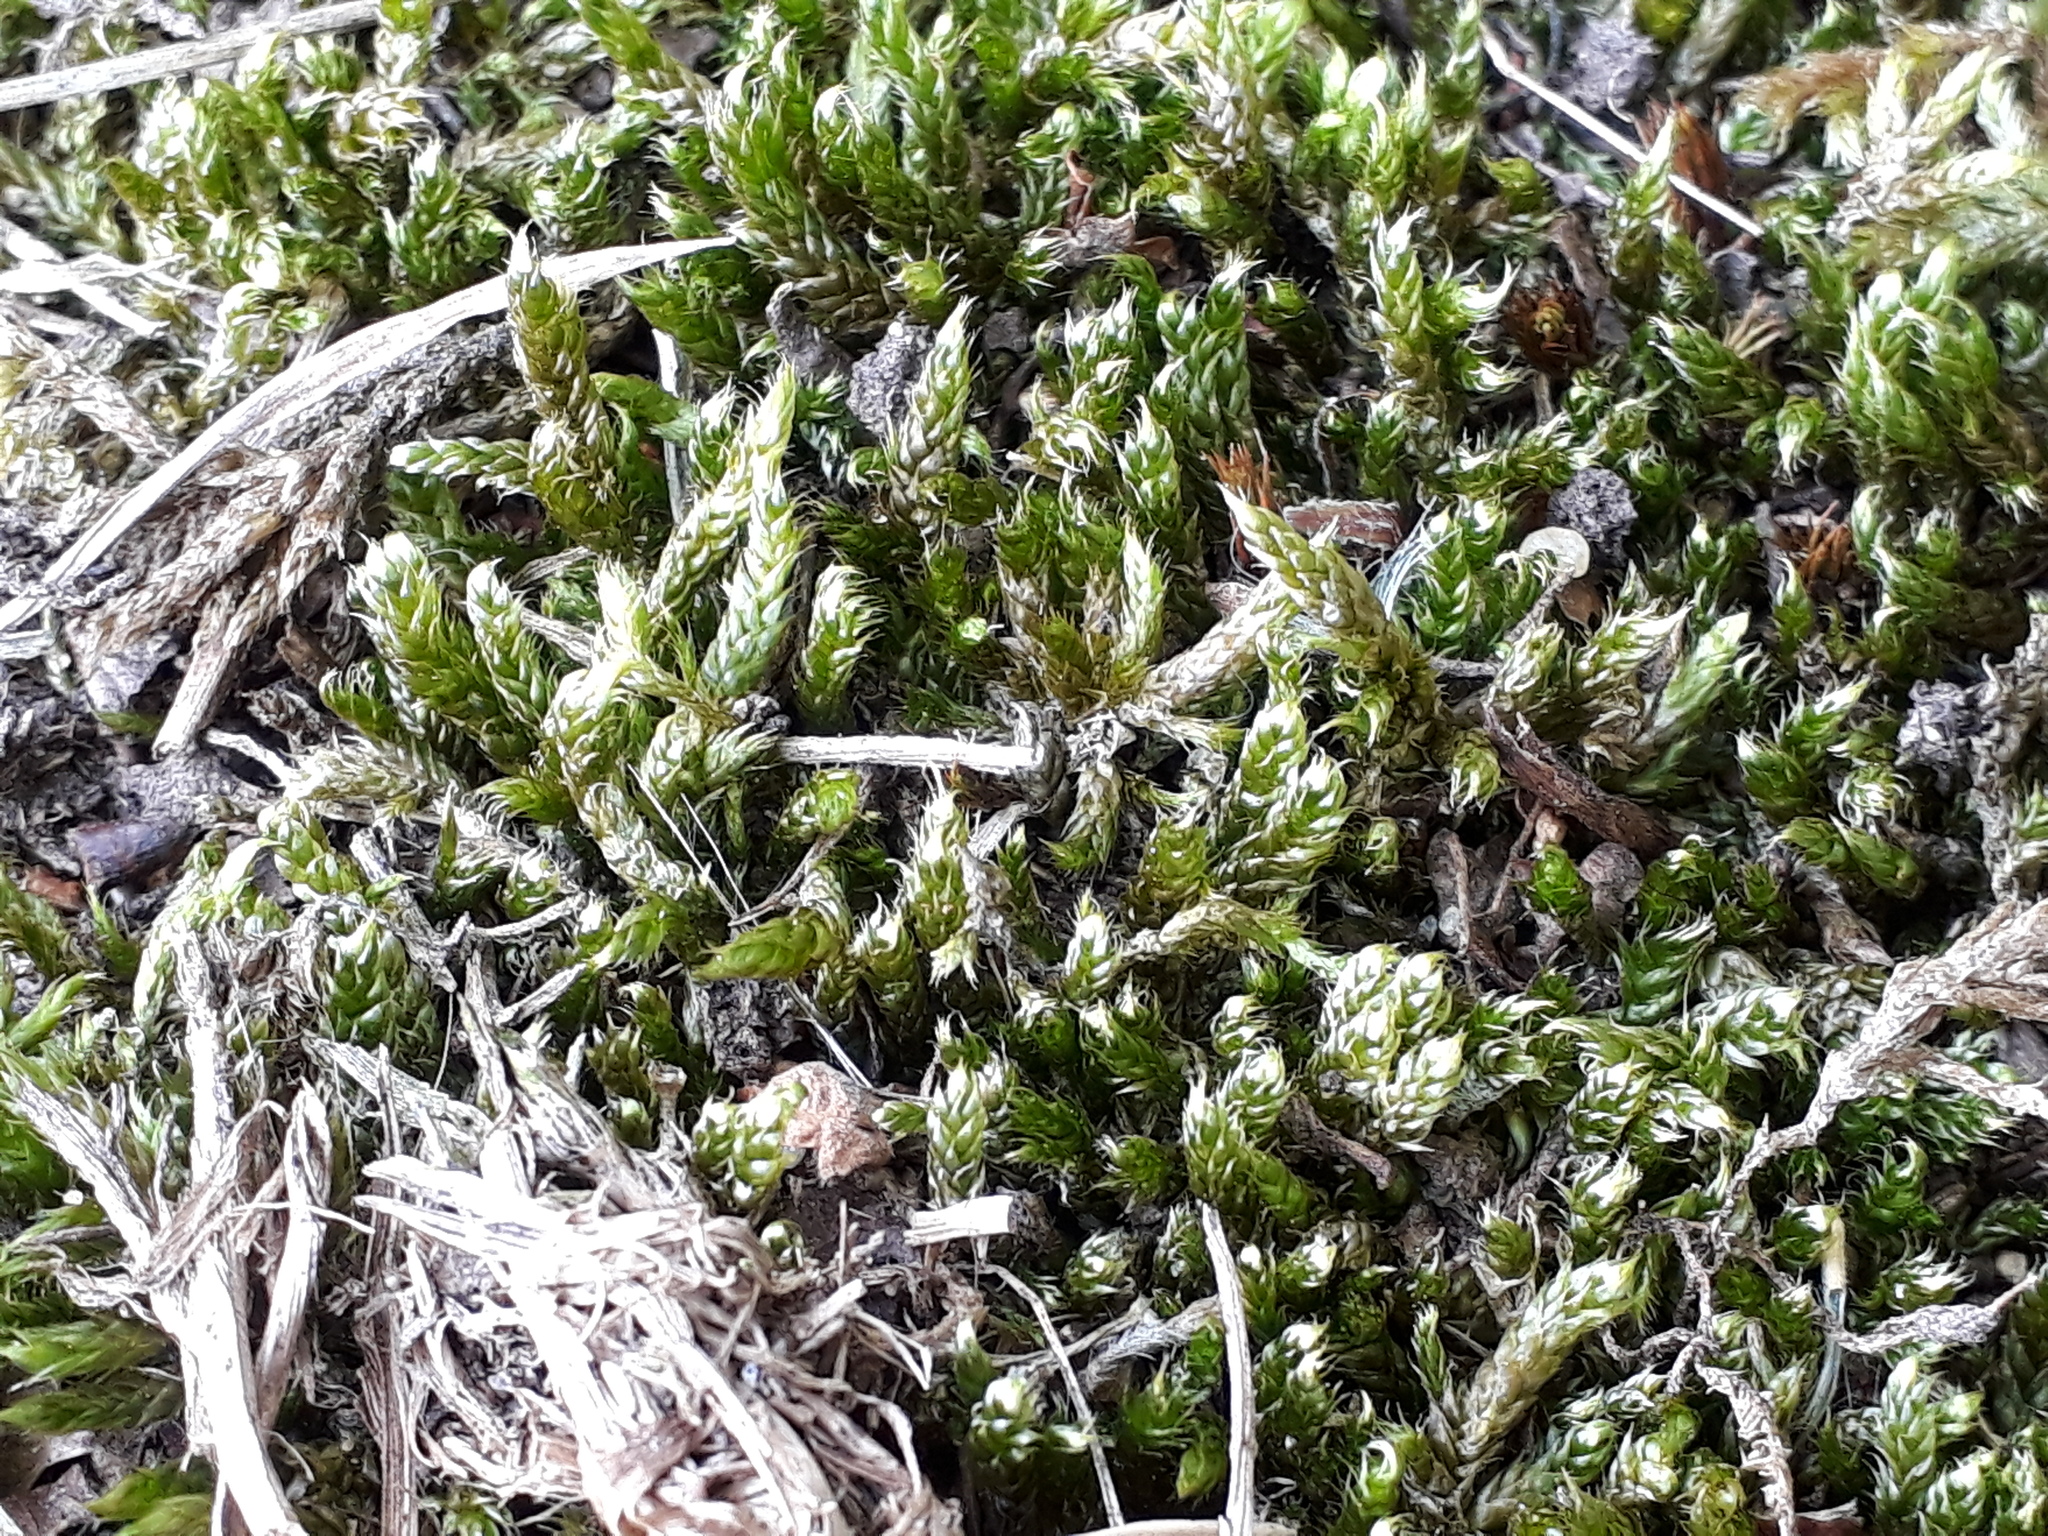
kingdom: Plantae
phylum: Bryophyta
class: Bryopsida
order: Hypnales
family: Hypnaceae
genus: Hypnum
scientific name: Hypnum cupressiforme
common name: Cypress-leaved plait-moss
